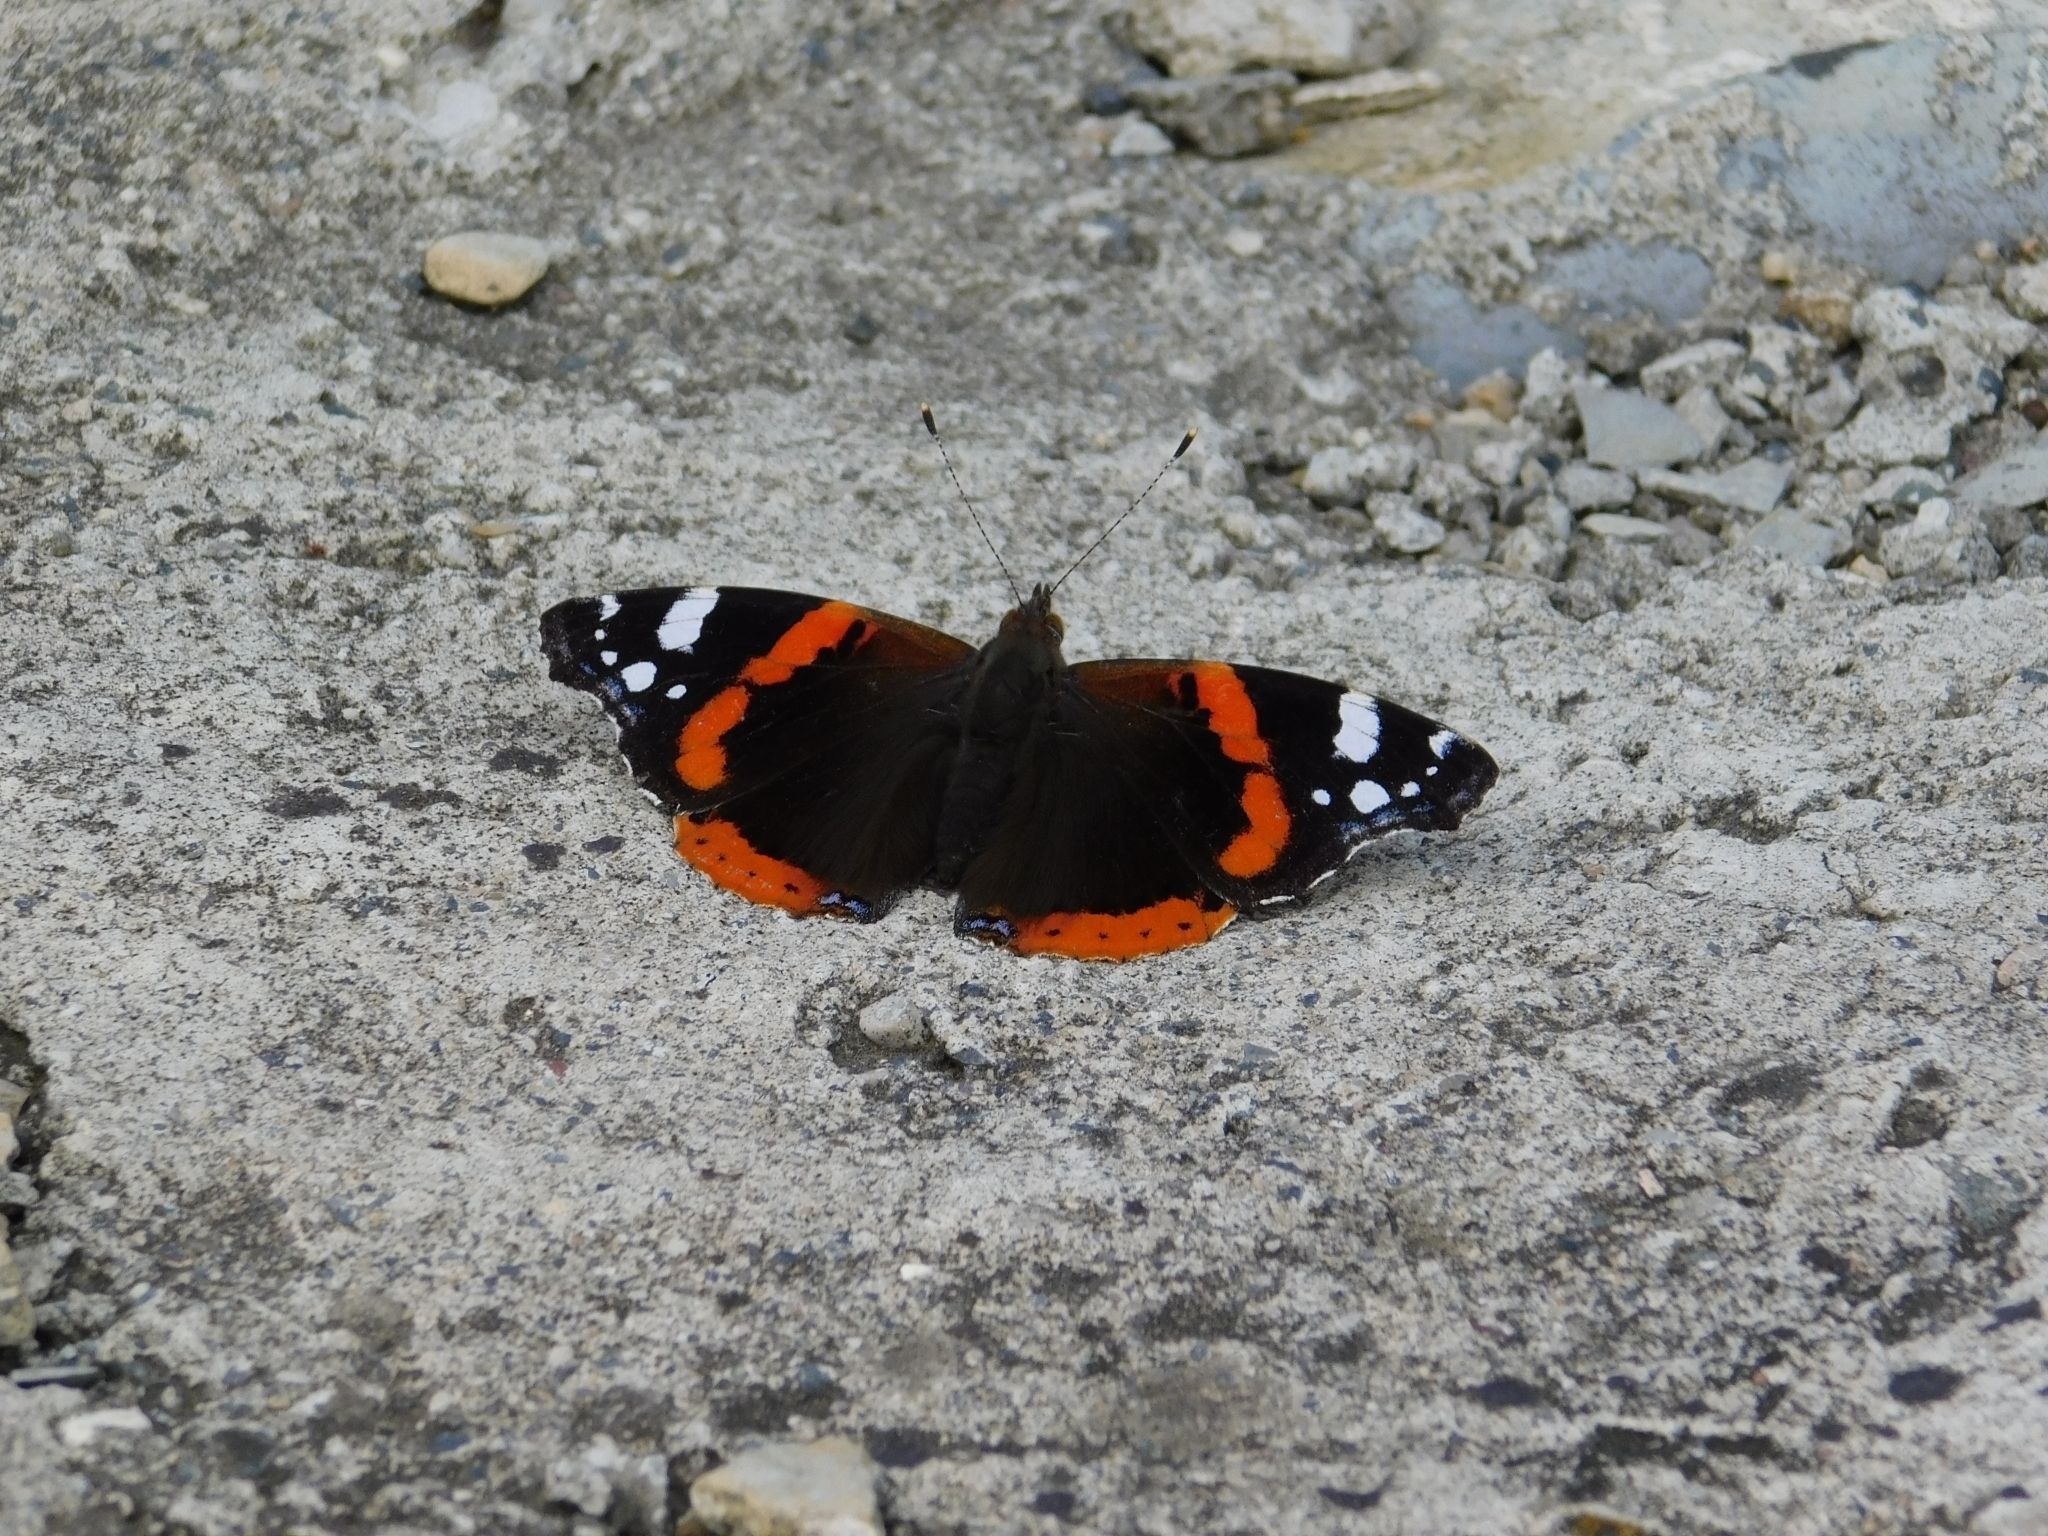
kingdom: Animalia
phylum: Arthropoda
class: Insecta
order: Lepidoptera
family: Nymphalidae
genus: Vanessa
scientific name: Vanessa atalanta
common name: Red admiral
